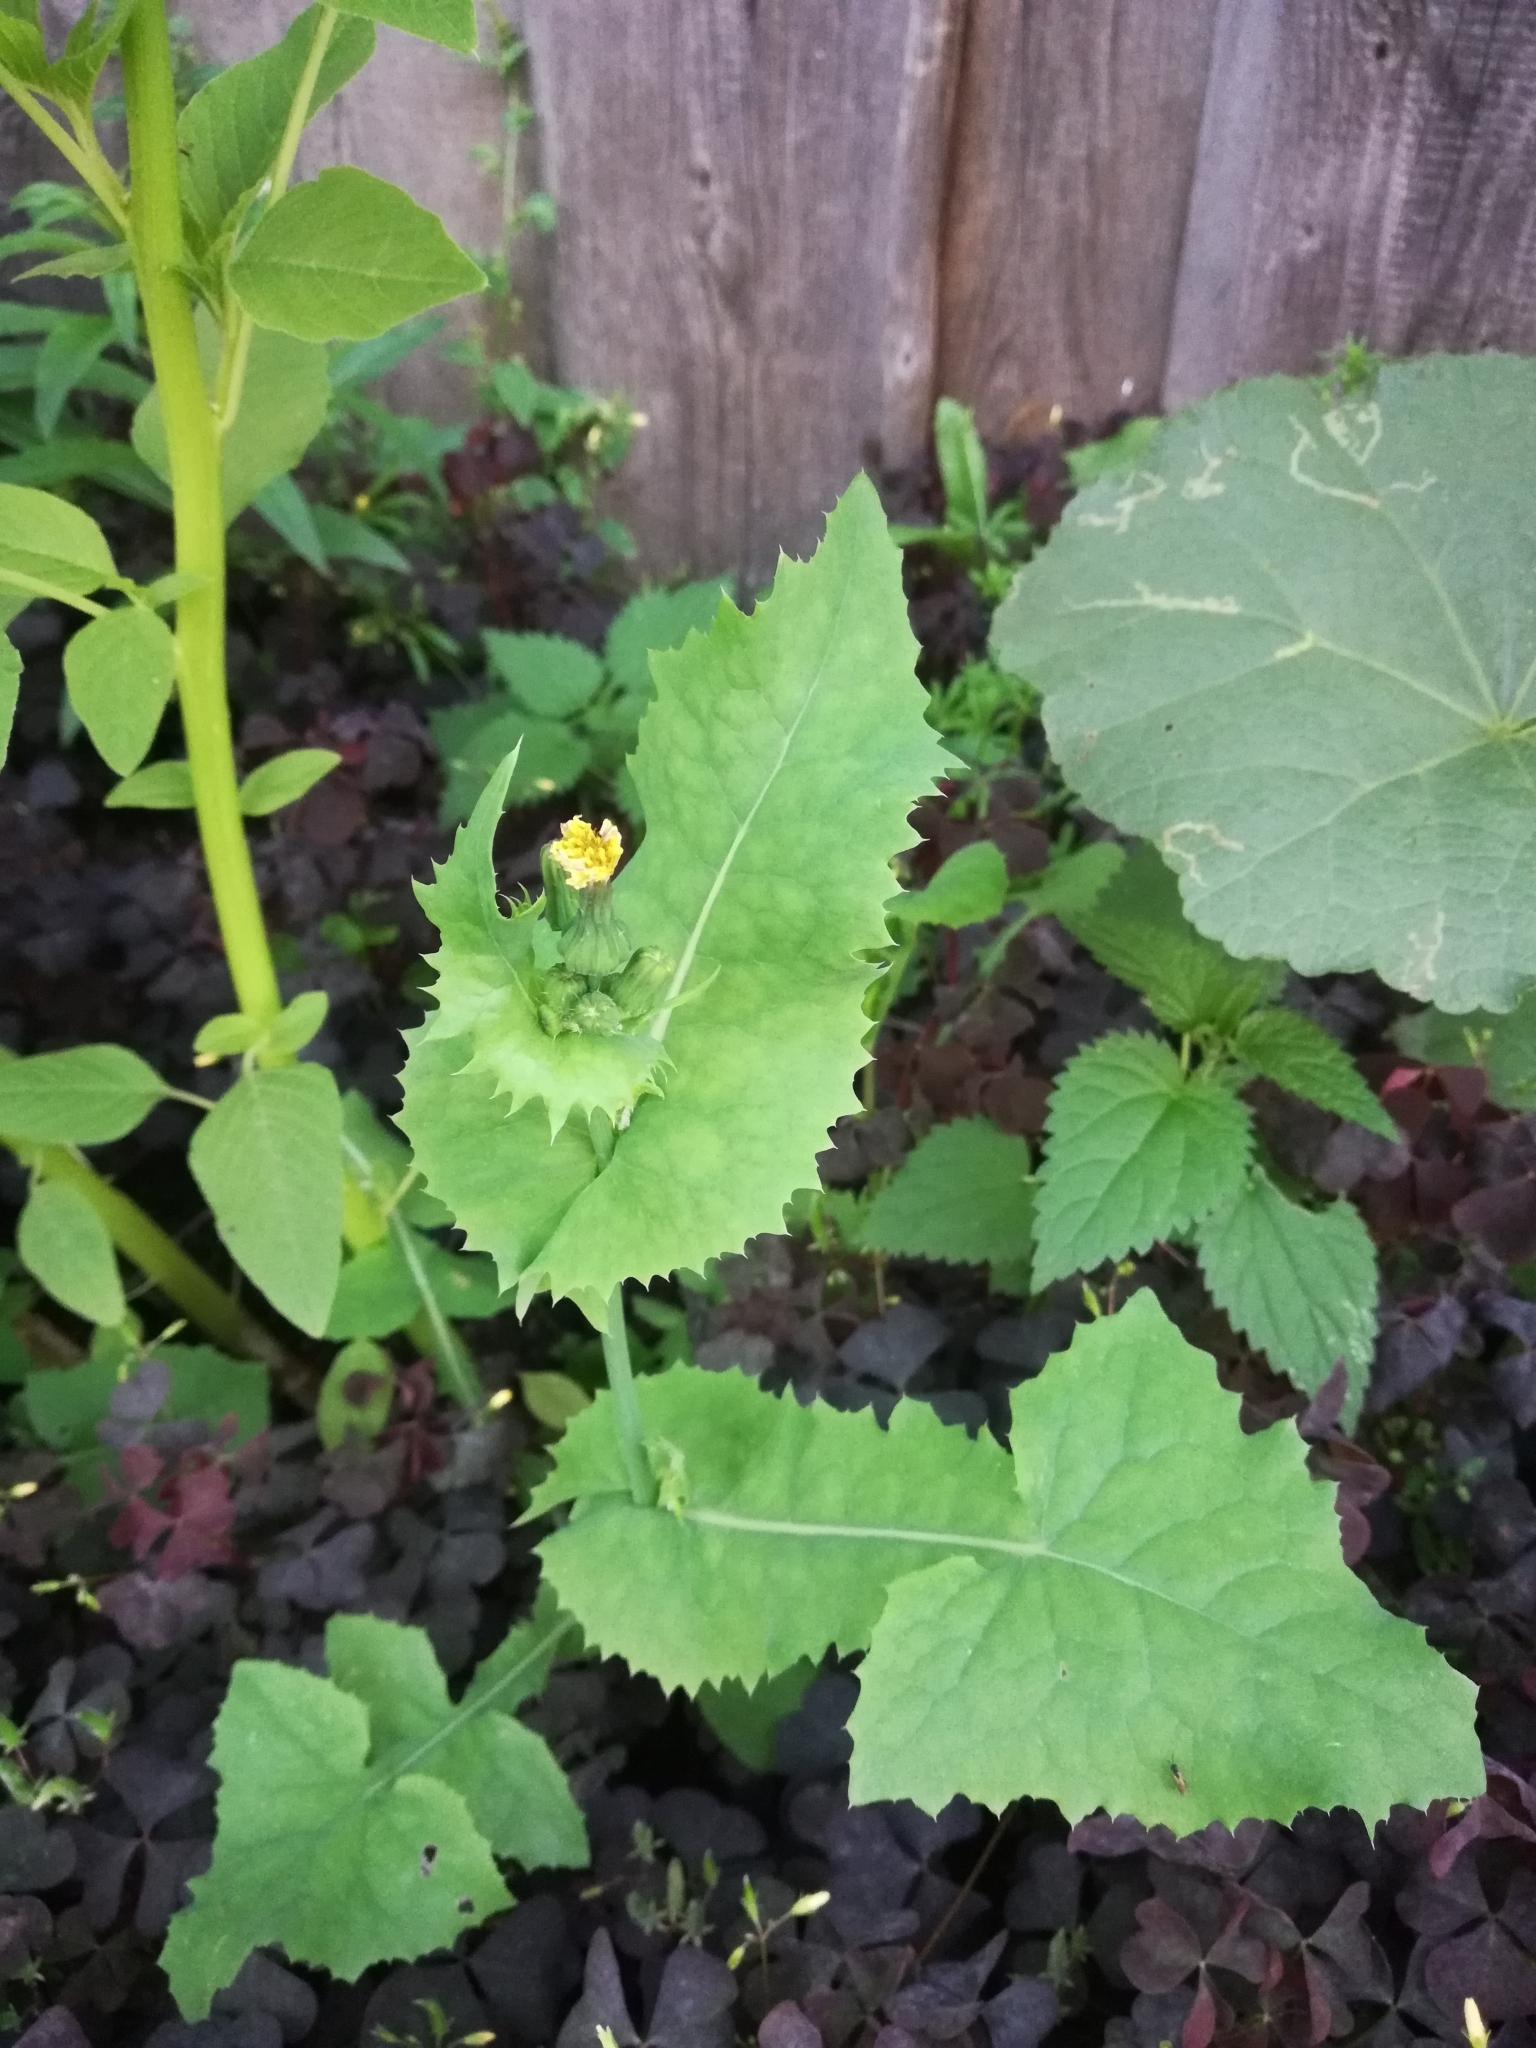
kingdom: Plantae
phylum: Tracheophyta
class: Magnoliopsida
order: Asterales
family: Asteraceae
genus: Sonchus
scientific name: Sonchus oleraceus
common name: Common sowthistle
